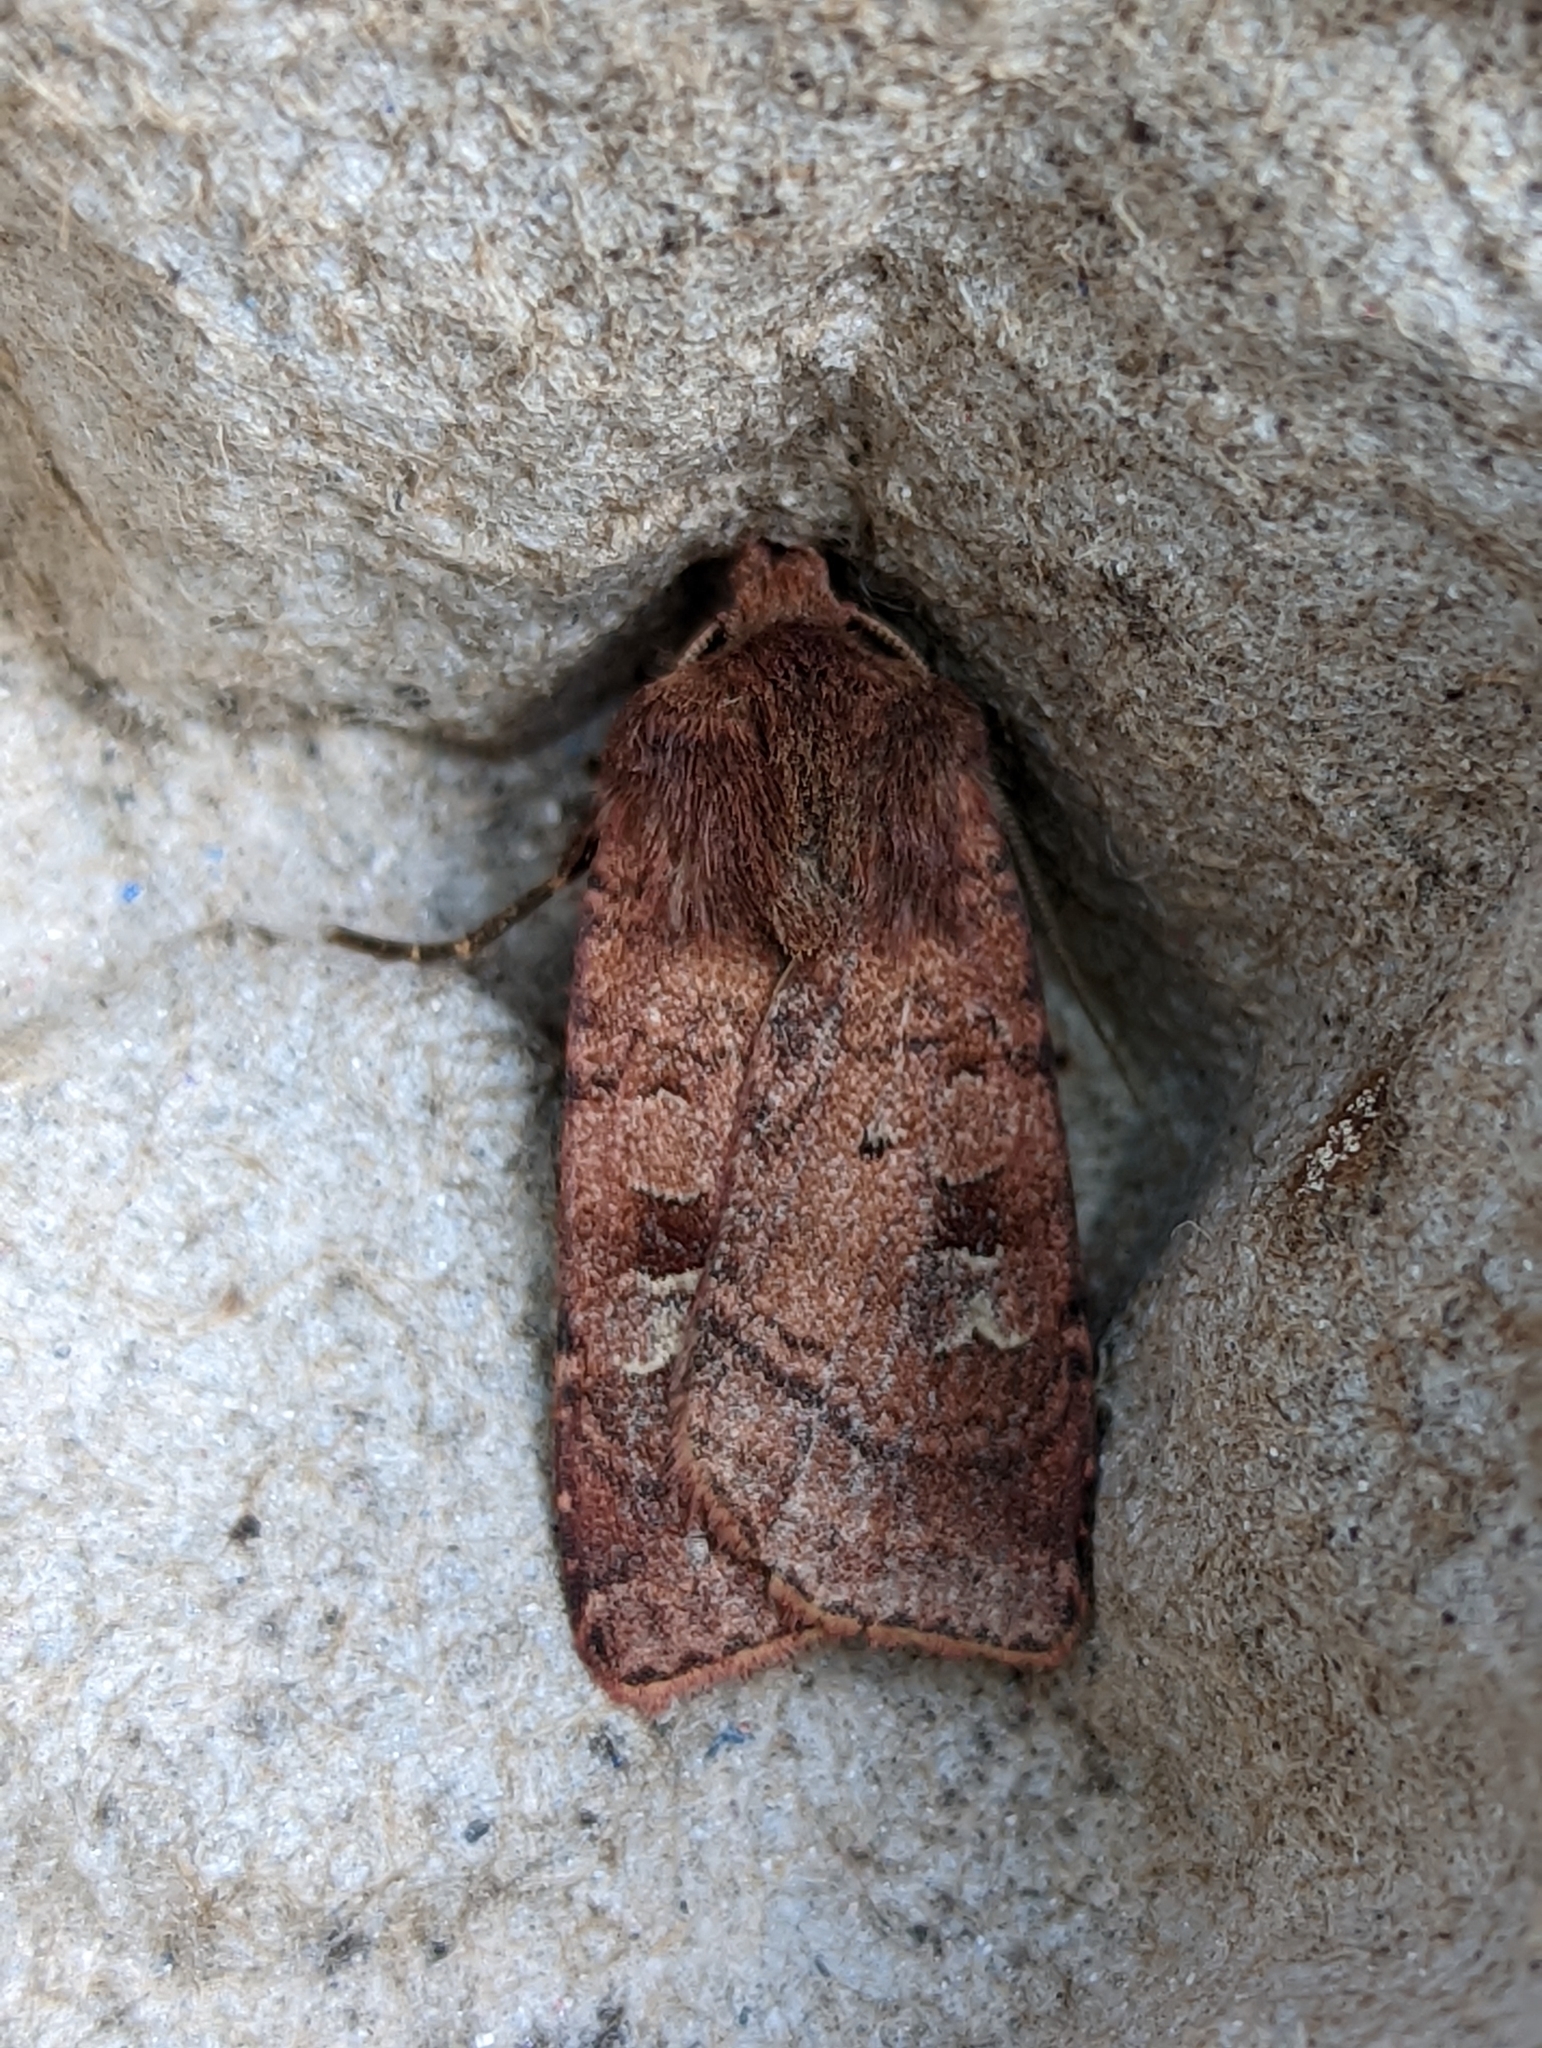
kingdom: Animalia
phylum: Arthropoda
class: Insecta
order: Lepidoptera
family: Noctuidae
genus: Diarsia
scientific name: Diarsia rubi
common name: Small square-spot
